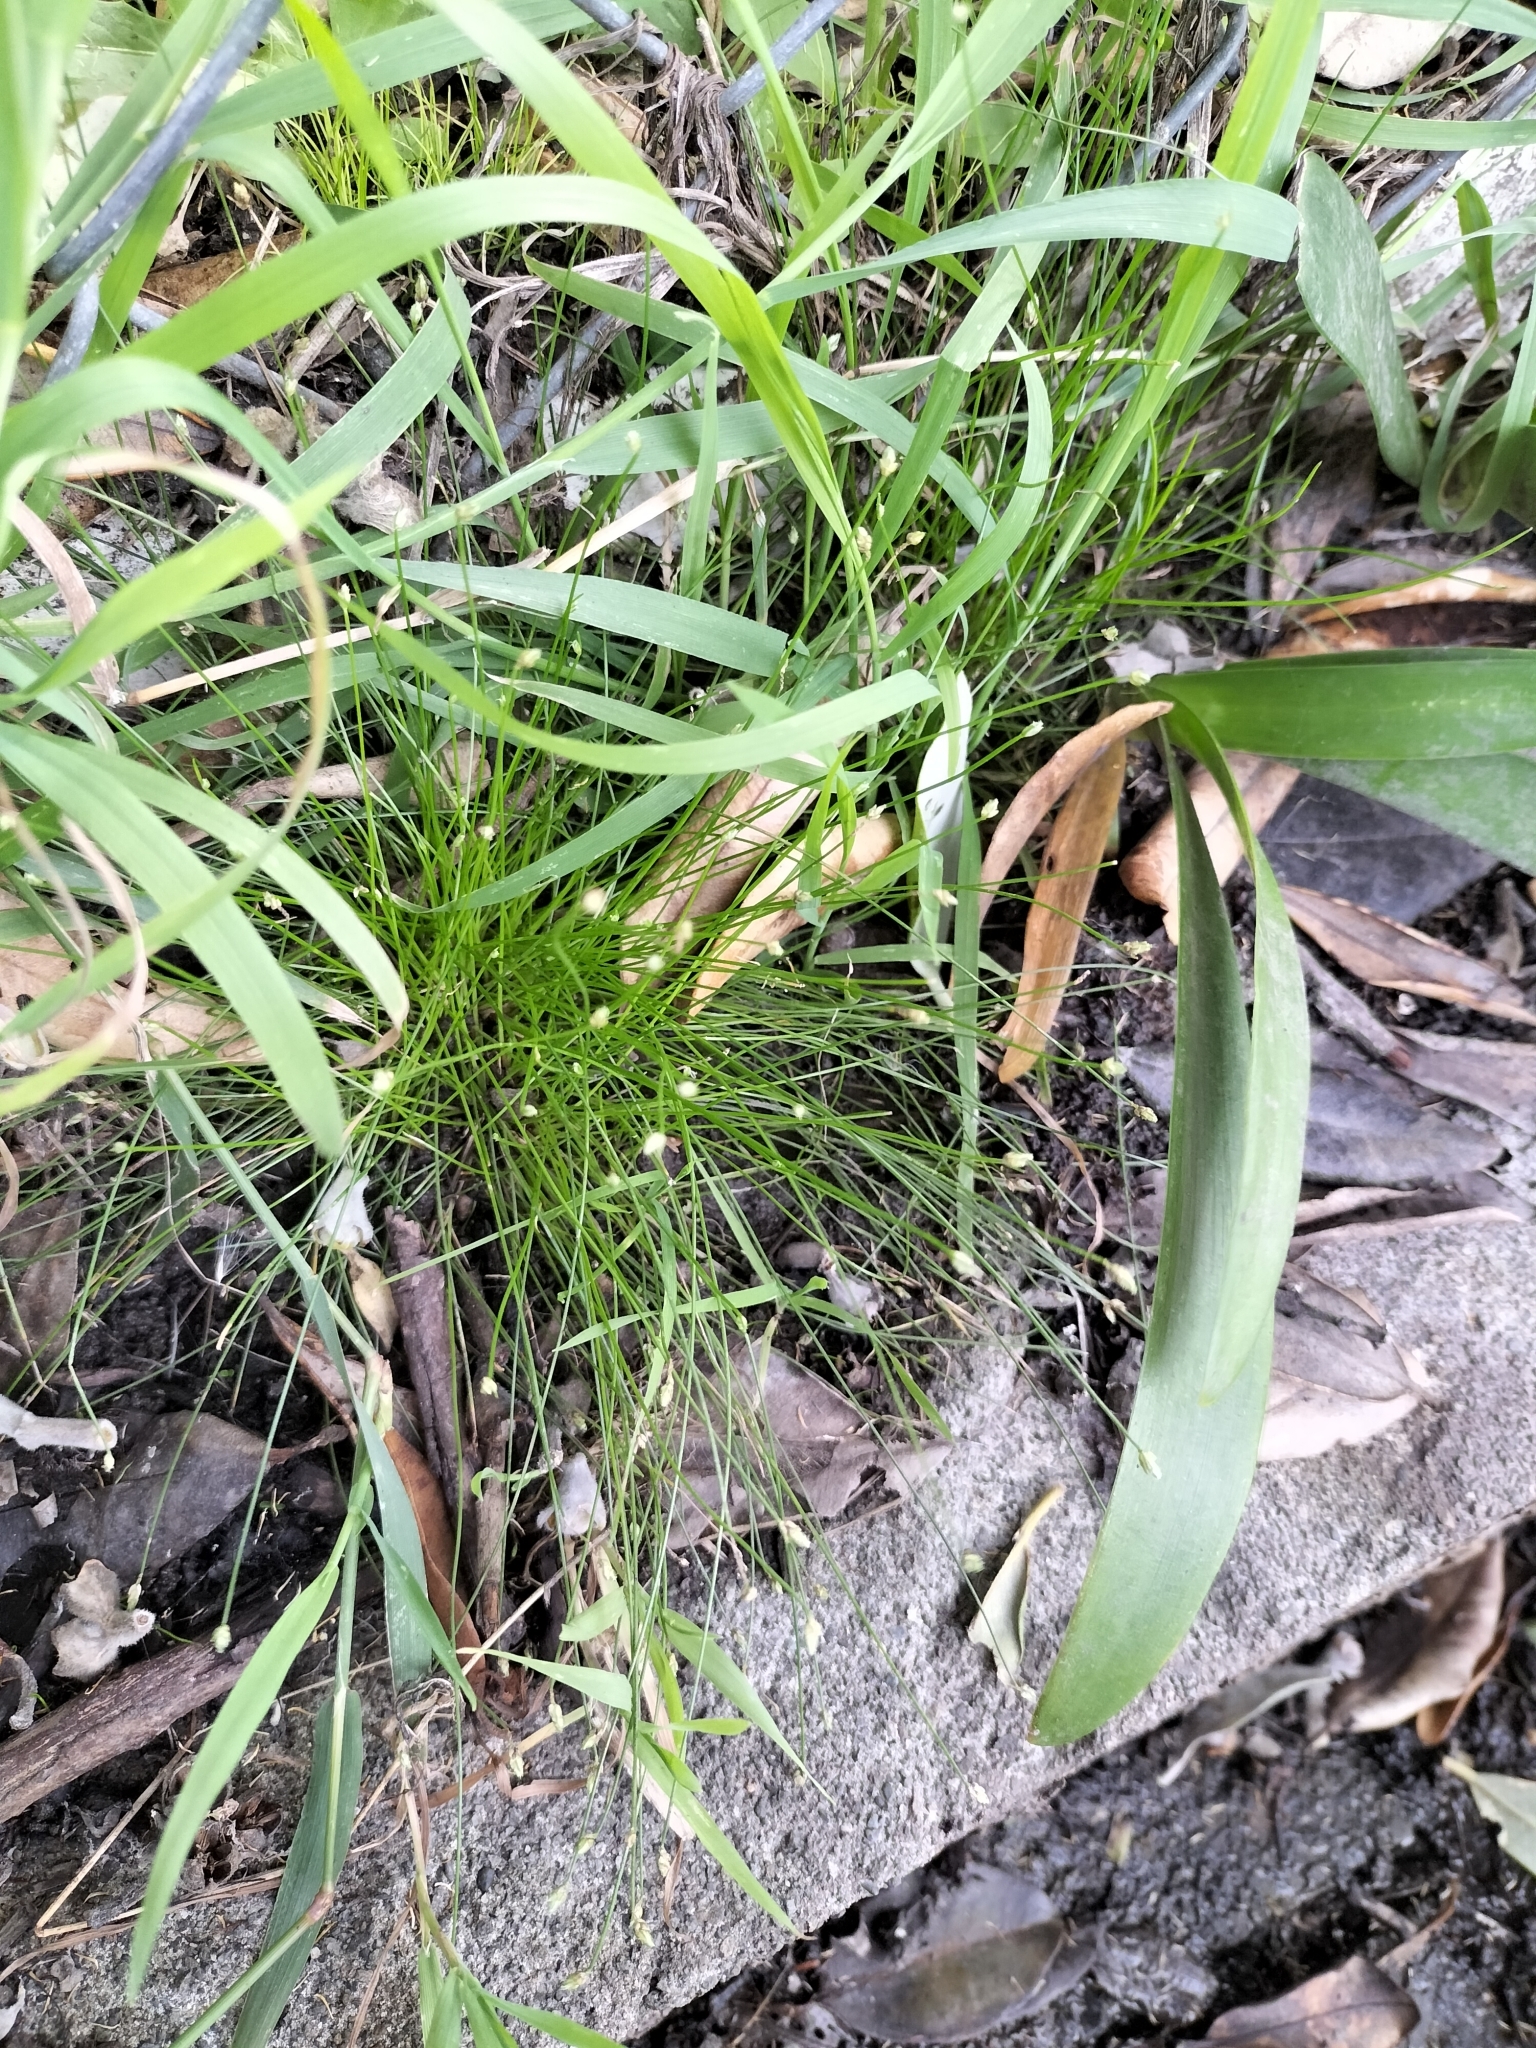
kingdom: Plantae
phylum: Tracheophyta
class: Liliopsida
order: Poales
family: Cyperaceae
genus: Isolepis
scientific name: Isolepis cernua
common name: Slender club-rush
